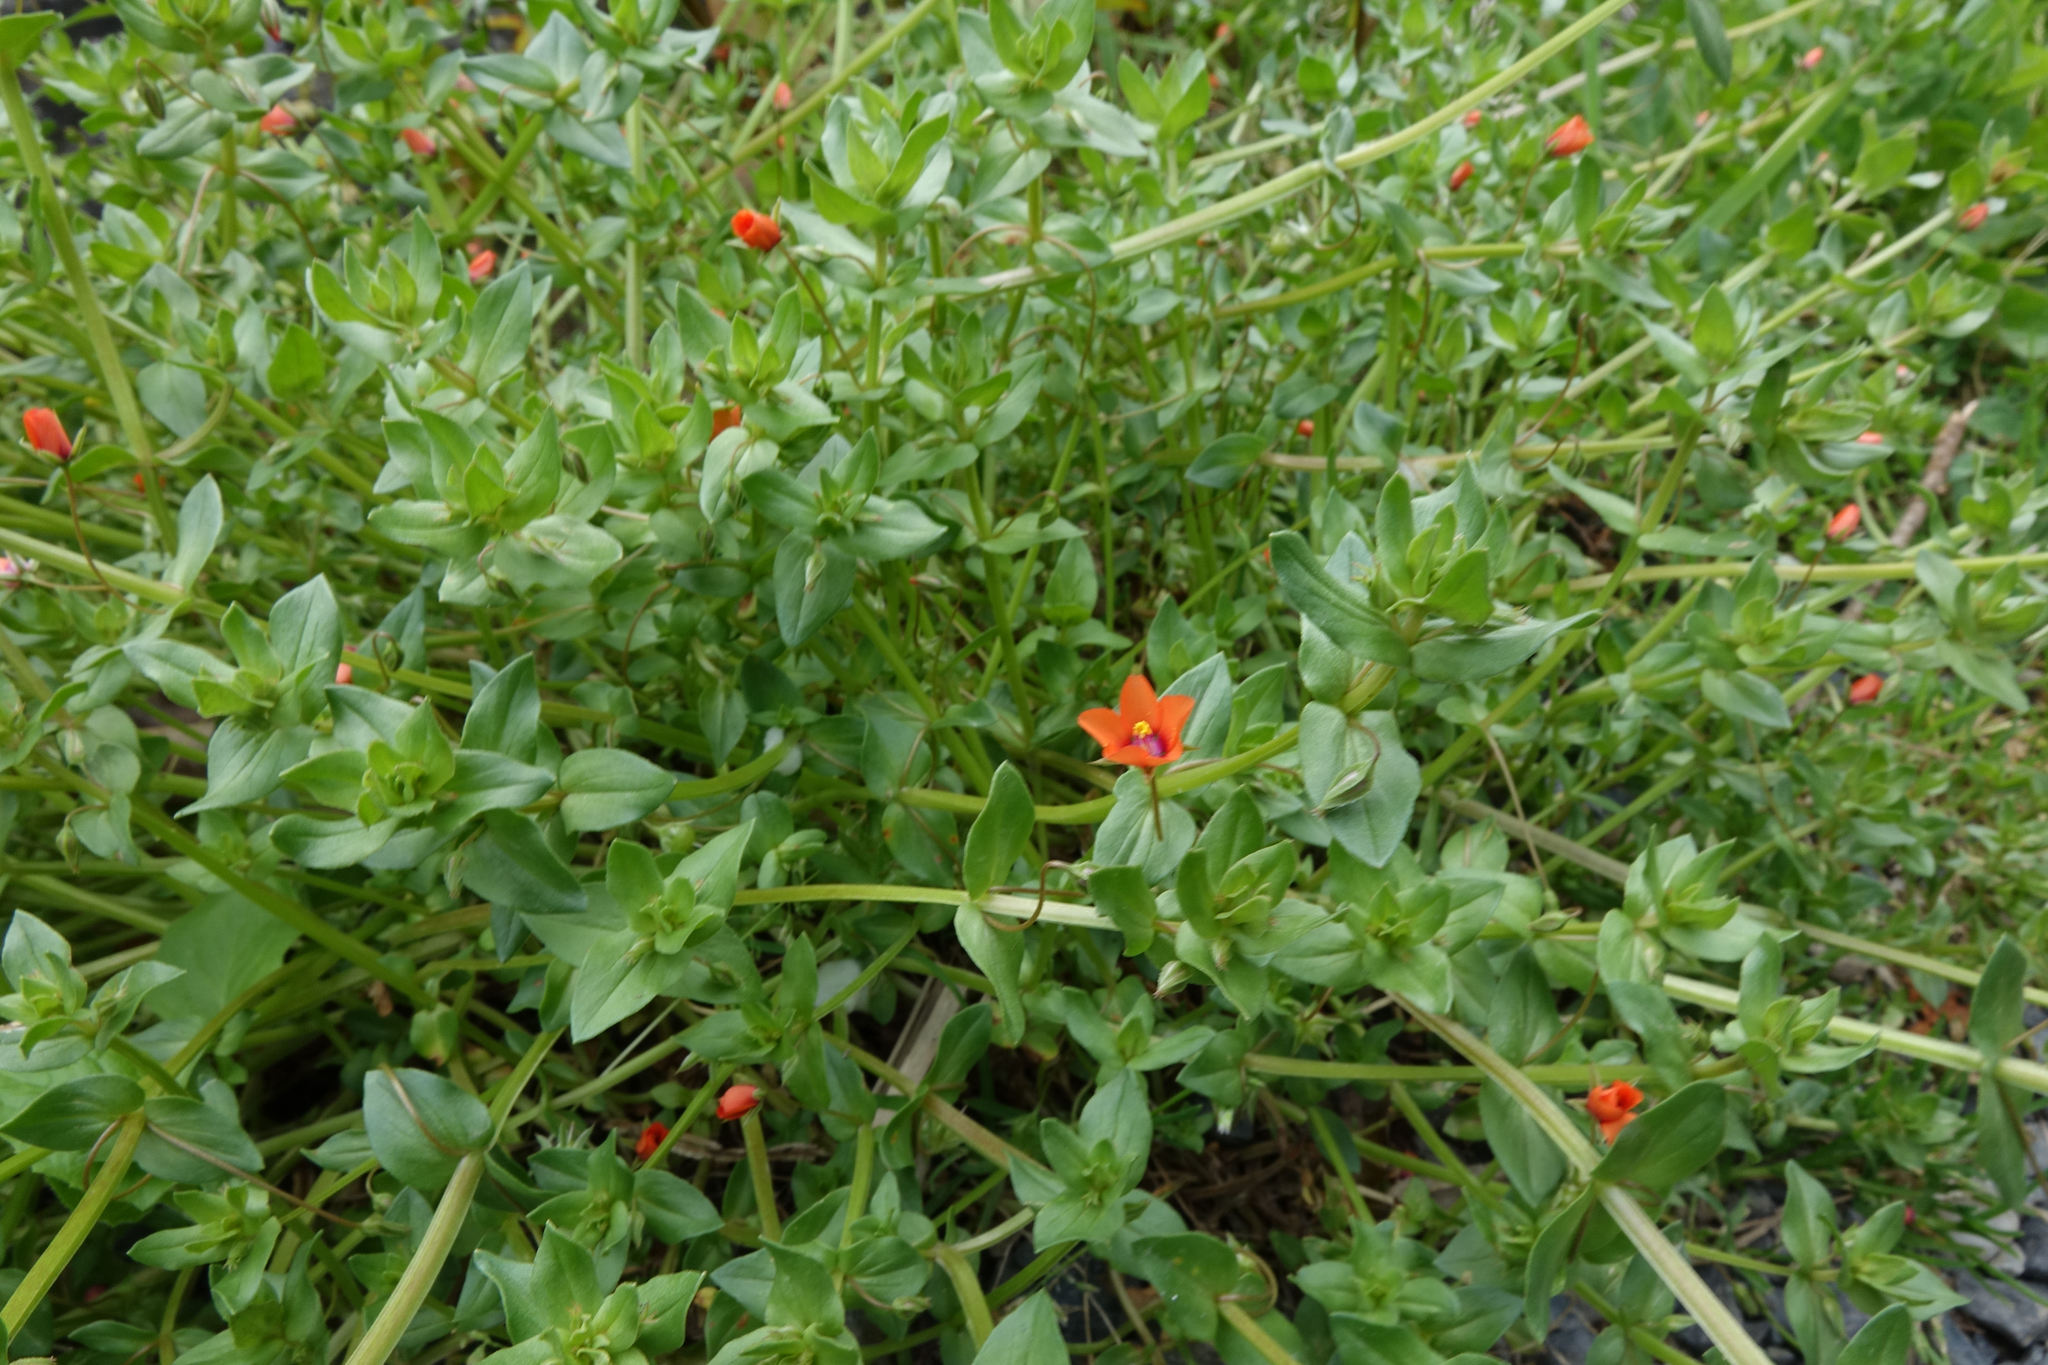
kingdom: Plantae
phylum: Tracheophyta
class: Magnoliopsida
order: Ericales
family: Primulaceae
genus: Lysimachia
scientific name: Lysimachia arvensis
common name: Scarlet pimpernel
